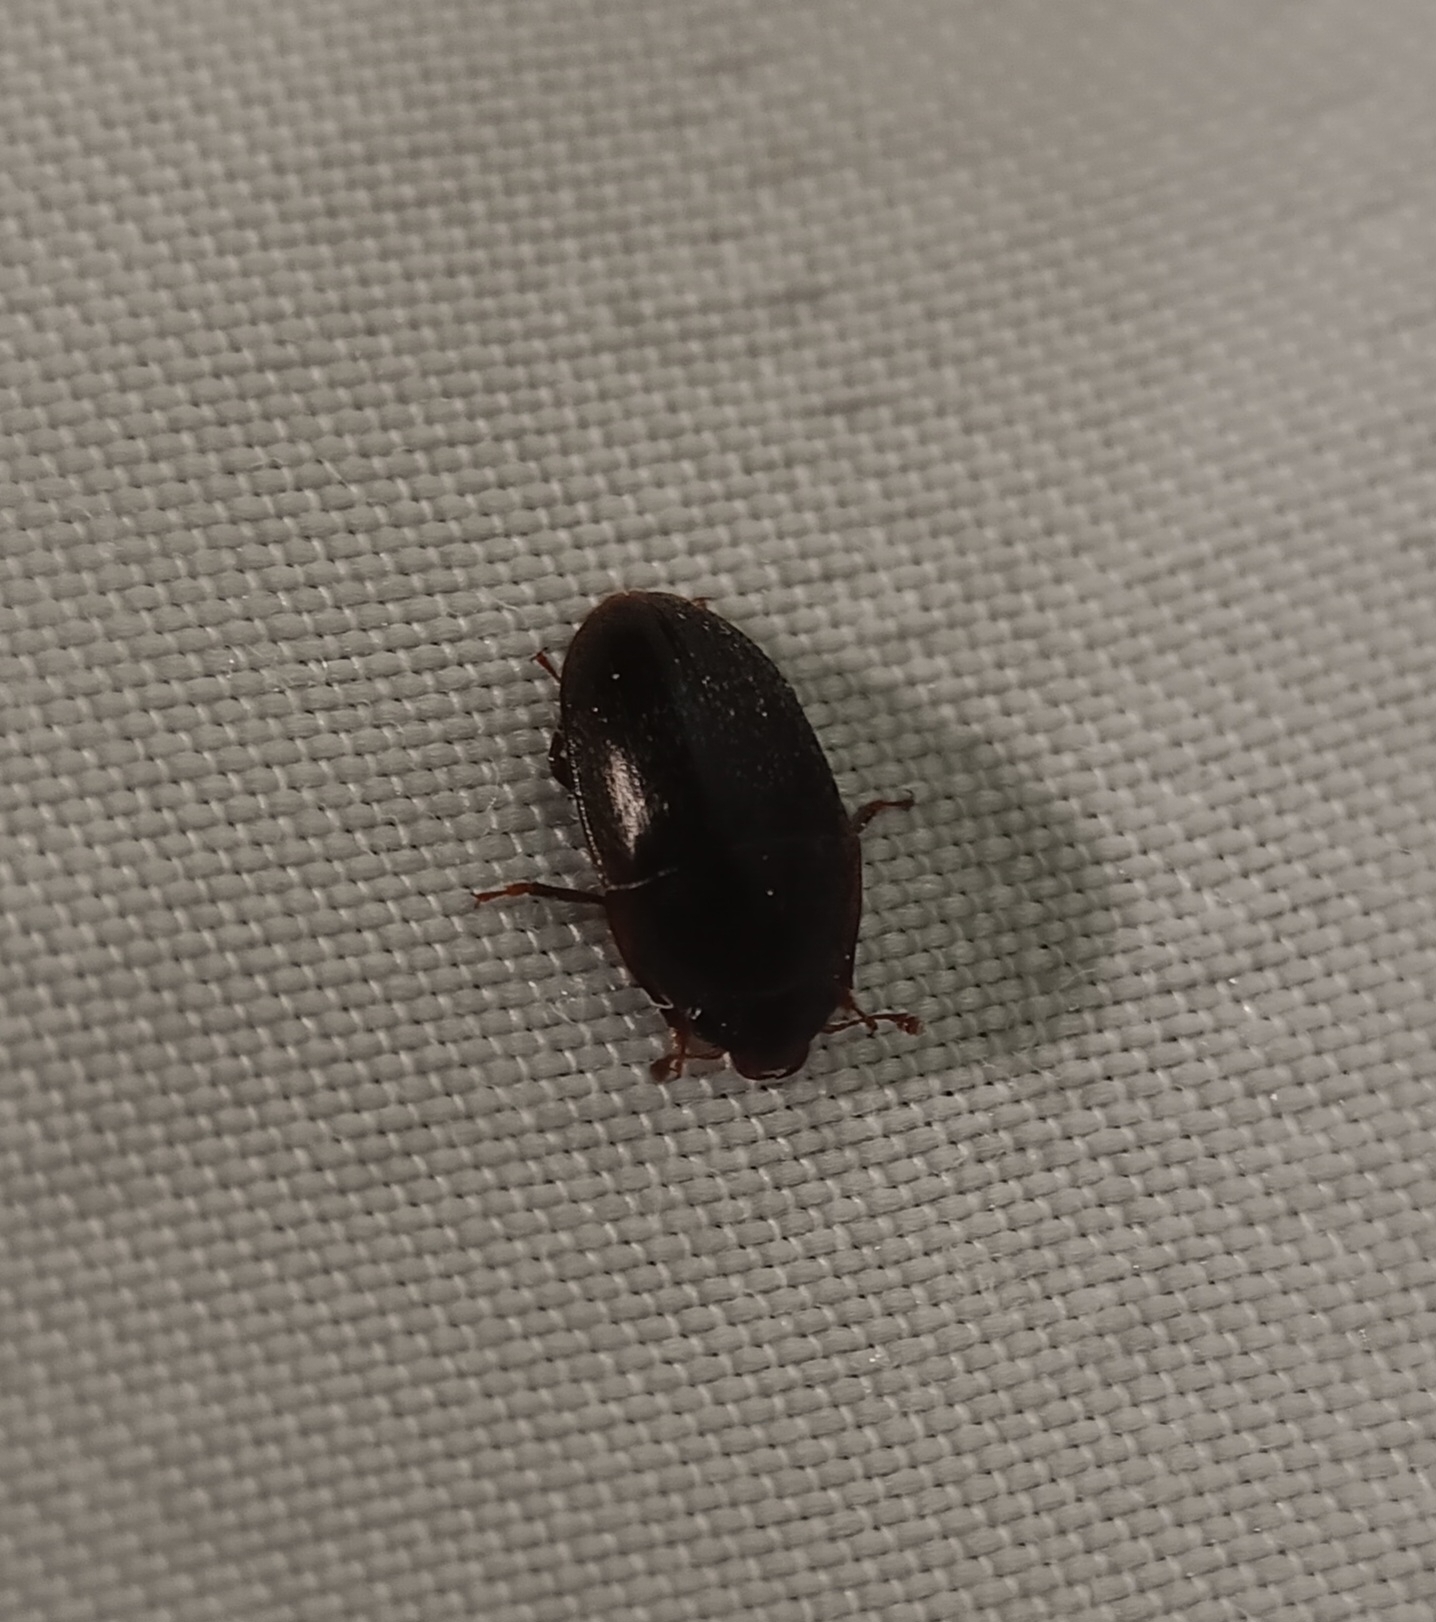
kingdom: Animalia
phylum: Arthropoda
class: Insecta
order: Coleoptera
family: Nitidulidae
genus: Cryptarcha
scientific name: Cryptarcha ampla
